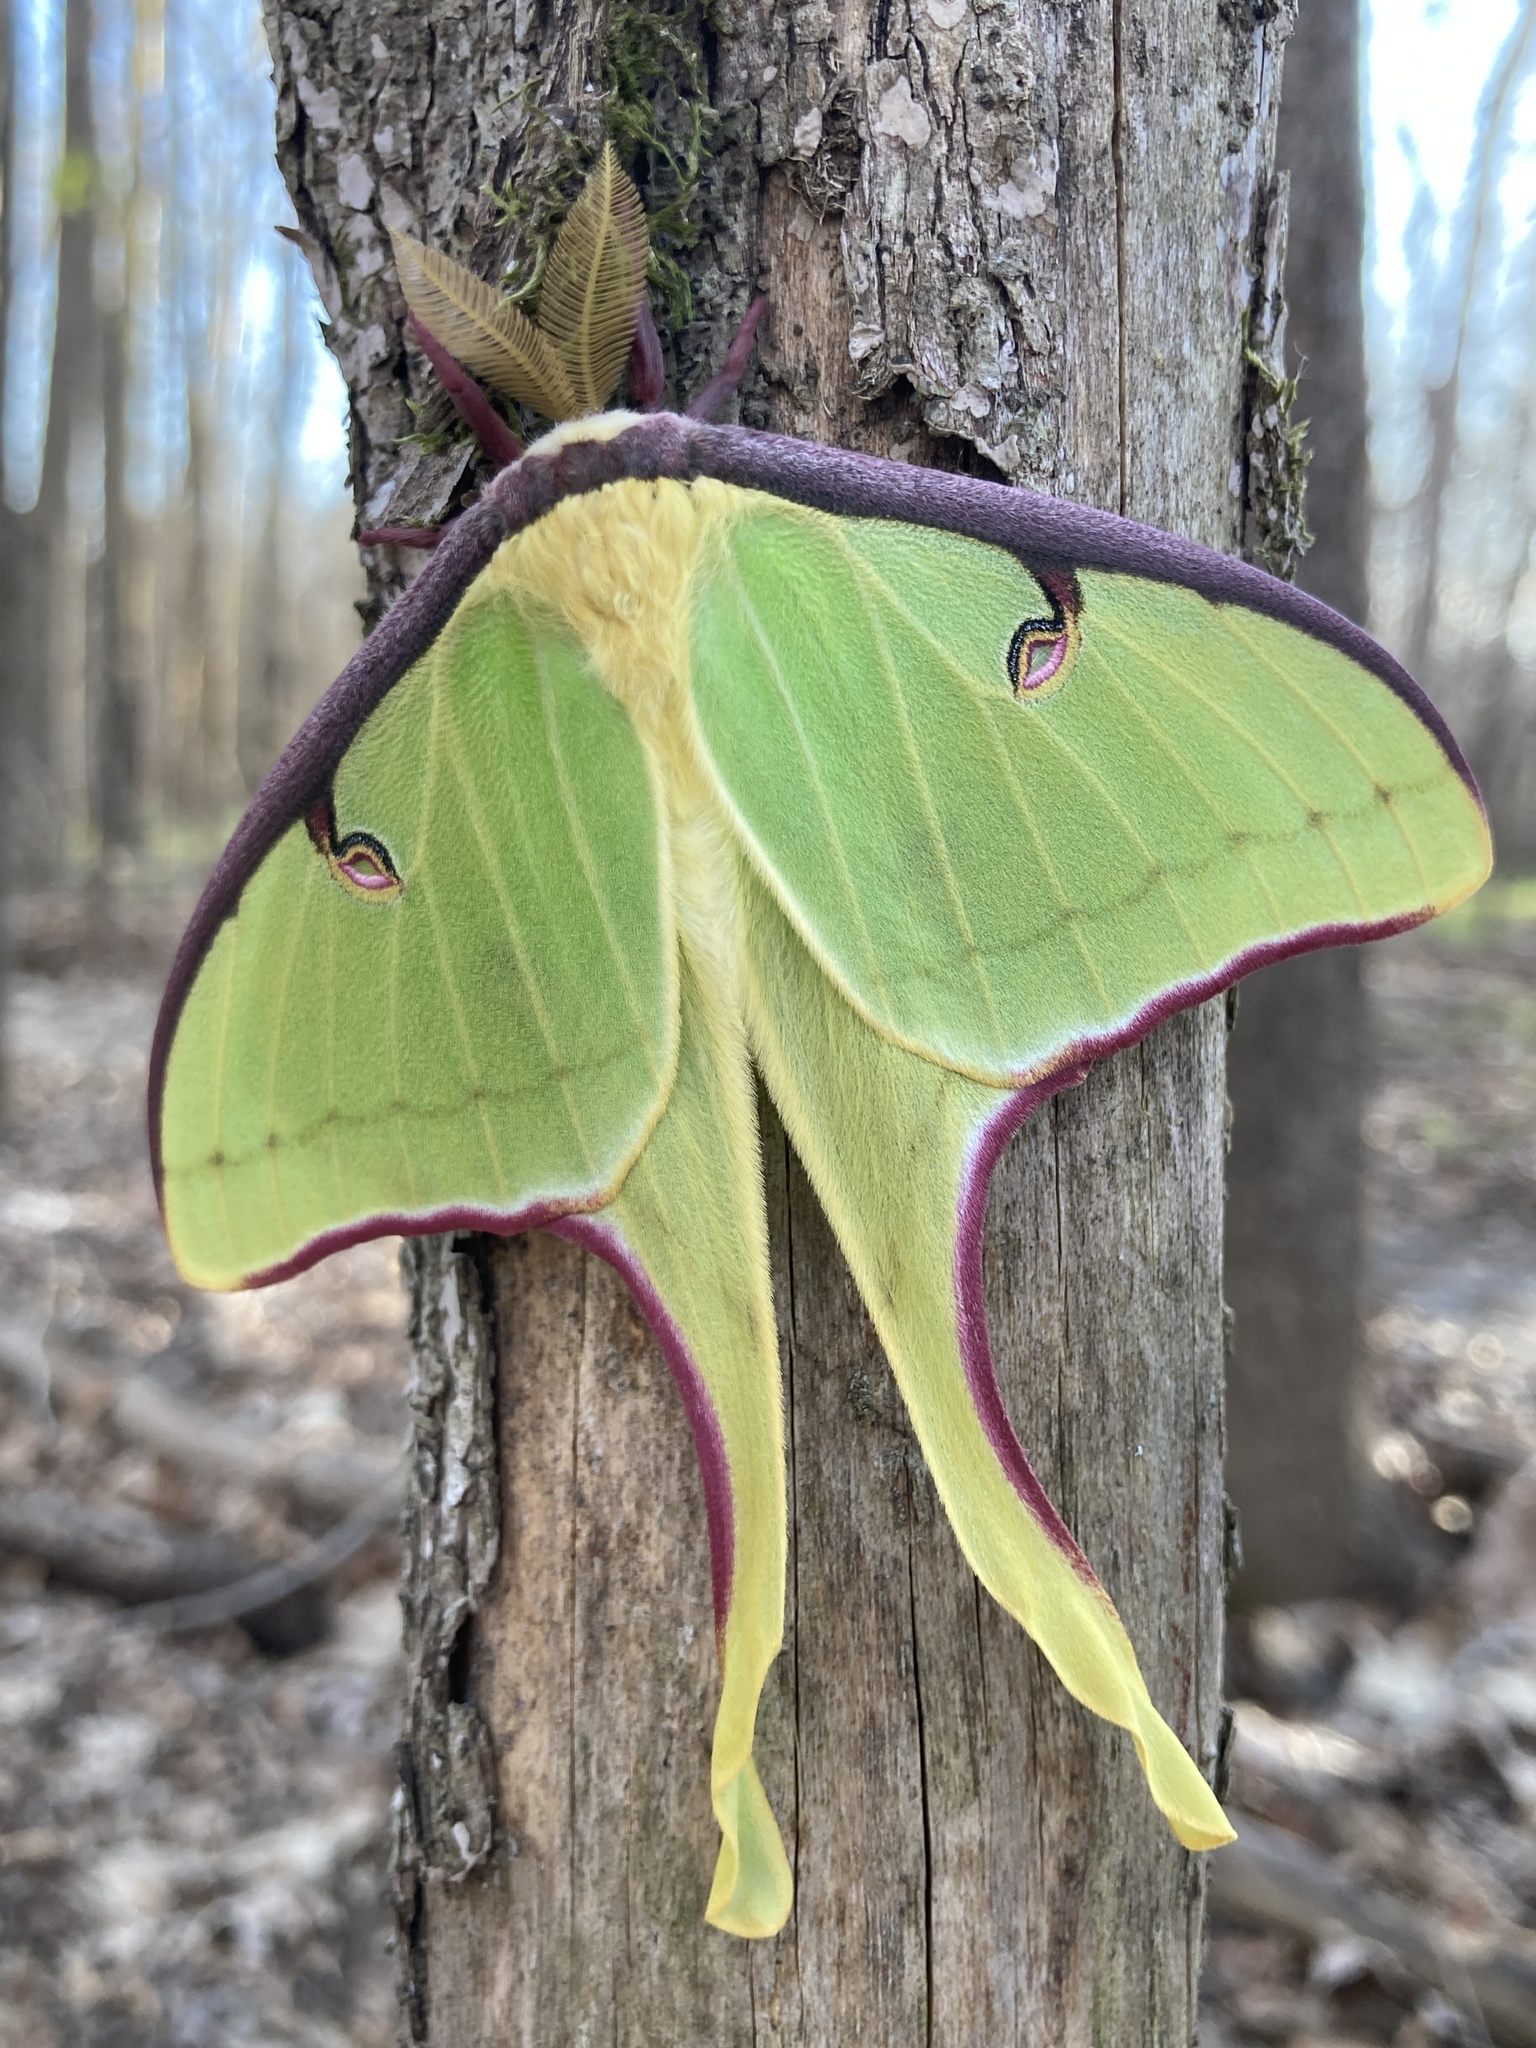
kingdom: Animalia
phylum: Arthropoda
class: Insecta
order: Lepidoptera
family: Saturniidae
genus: Actias
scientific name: Actias luna
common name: Luna moth
